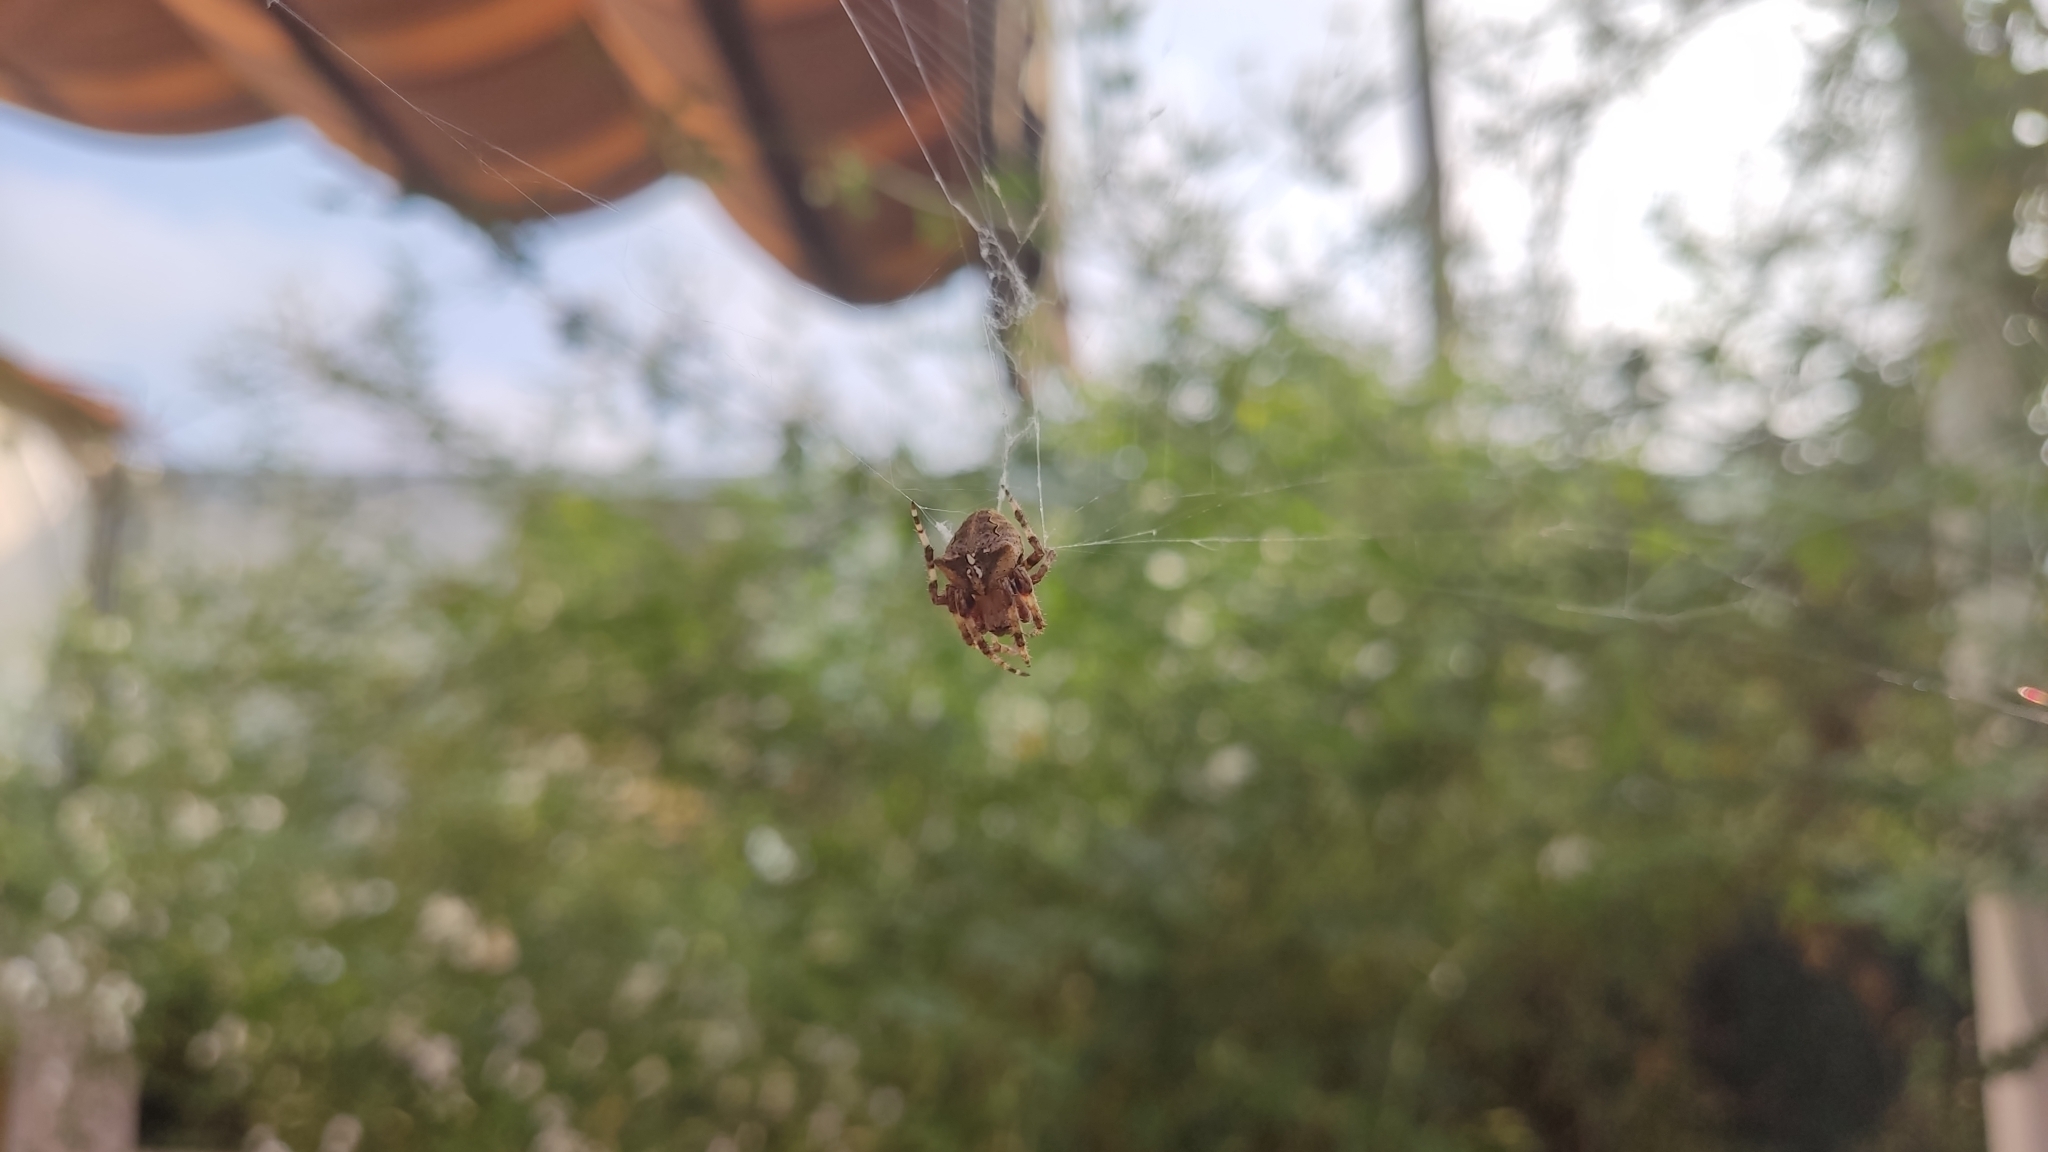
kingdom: Animalia
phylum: Arthropoda
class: Arachnida
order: Araneae
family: Araneidae
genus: Araneus
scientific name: Araneus angulatus
